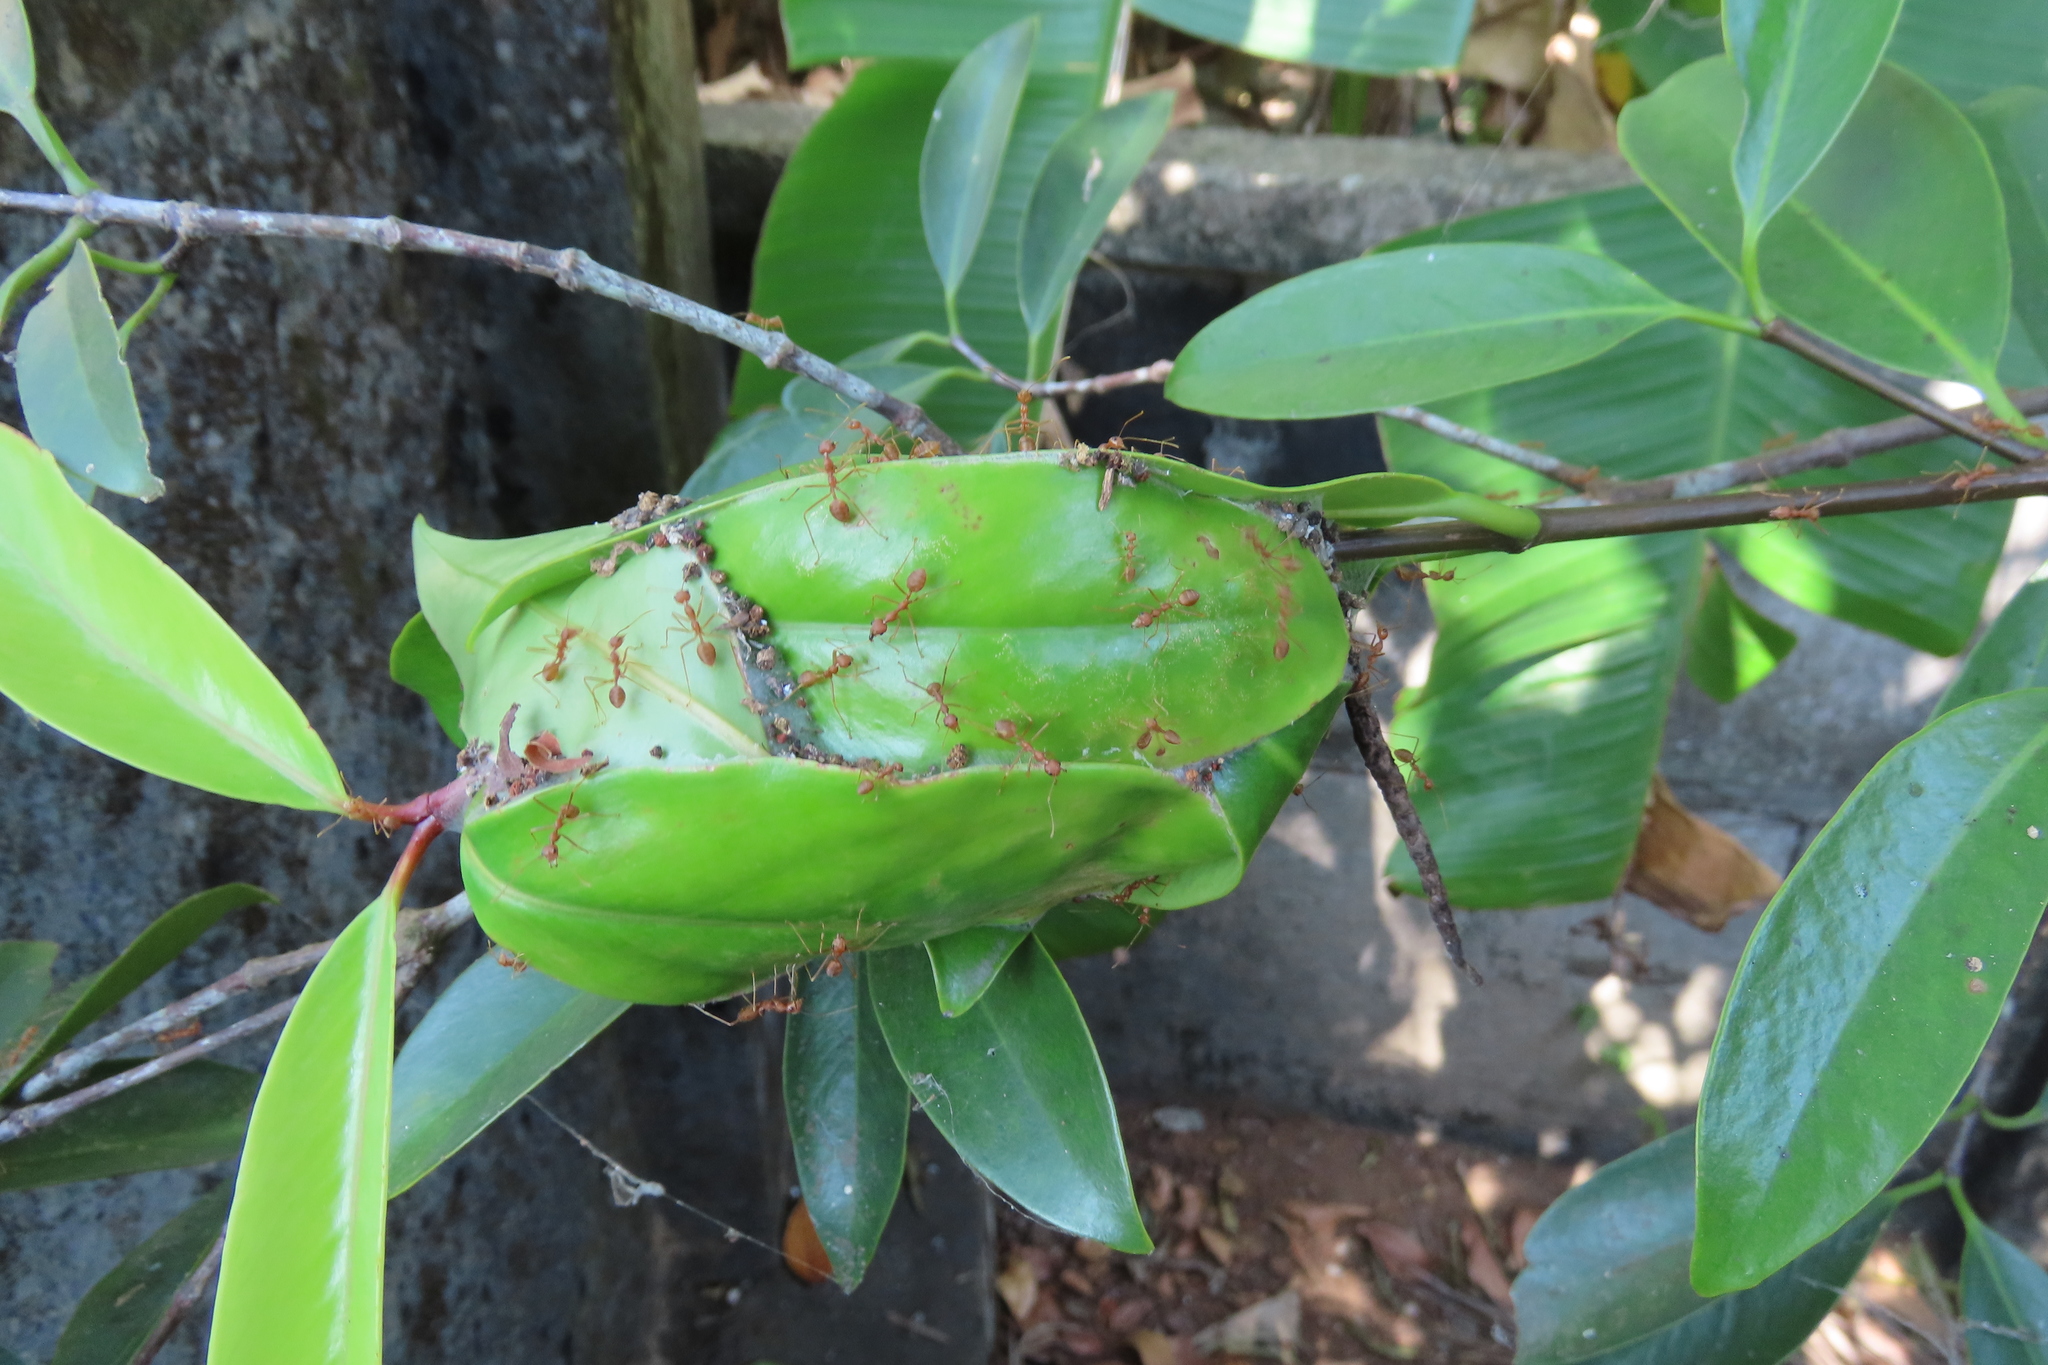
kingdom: Animalia
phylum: Arthropoda
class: Insecta
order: Hymenoptera
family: Formicidae
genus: Oecophylla
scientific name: Oecophylla smaragdina
